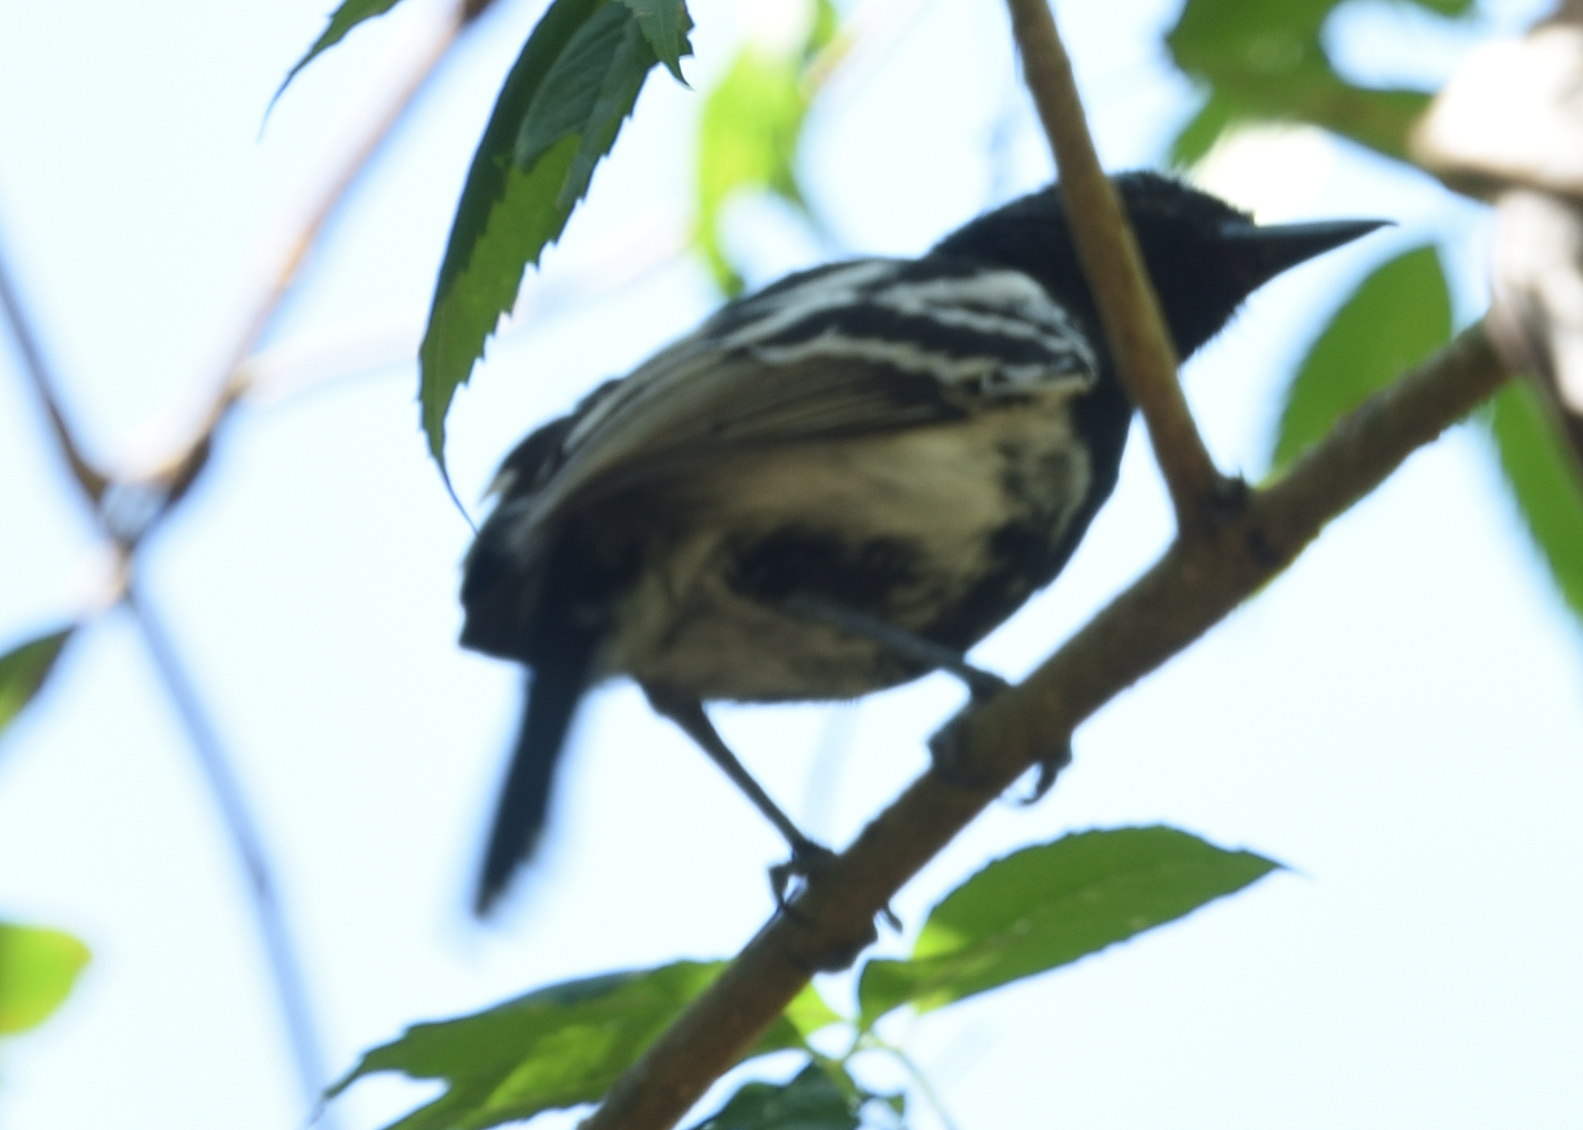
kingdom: Animalia
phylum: Chordata
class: Aves
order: Passeriformes
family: Thamnophilidae
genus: Thamnophilus
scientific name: Thamnophilus melanonotus
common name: Black-backed antshrike
